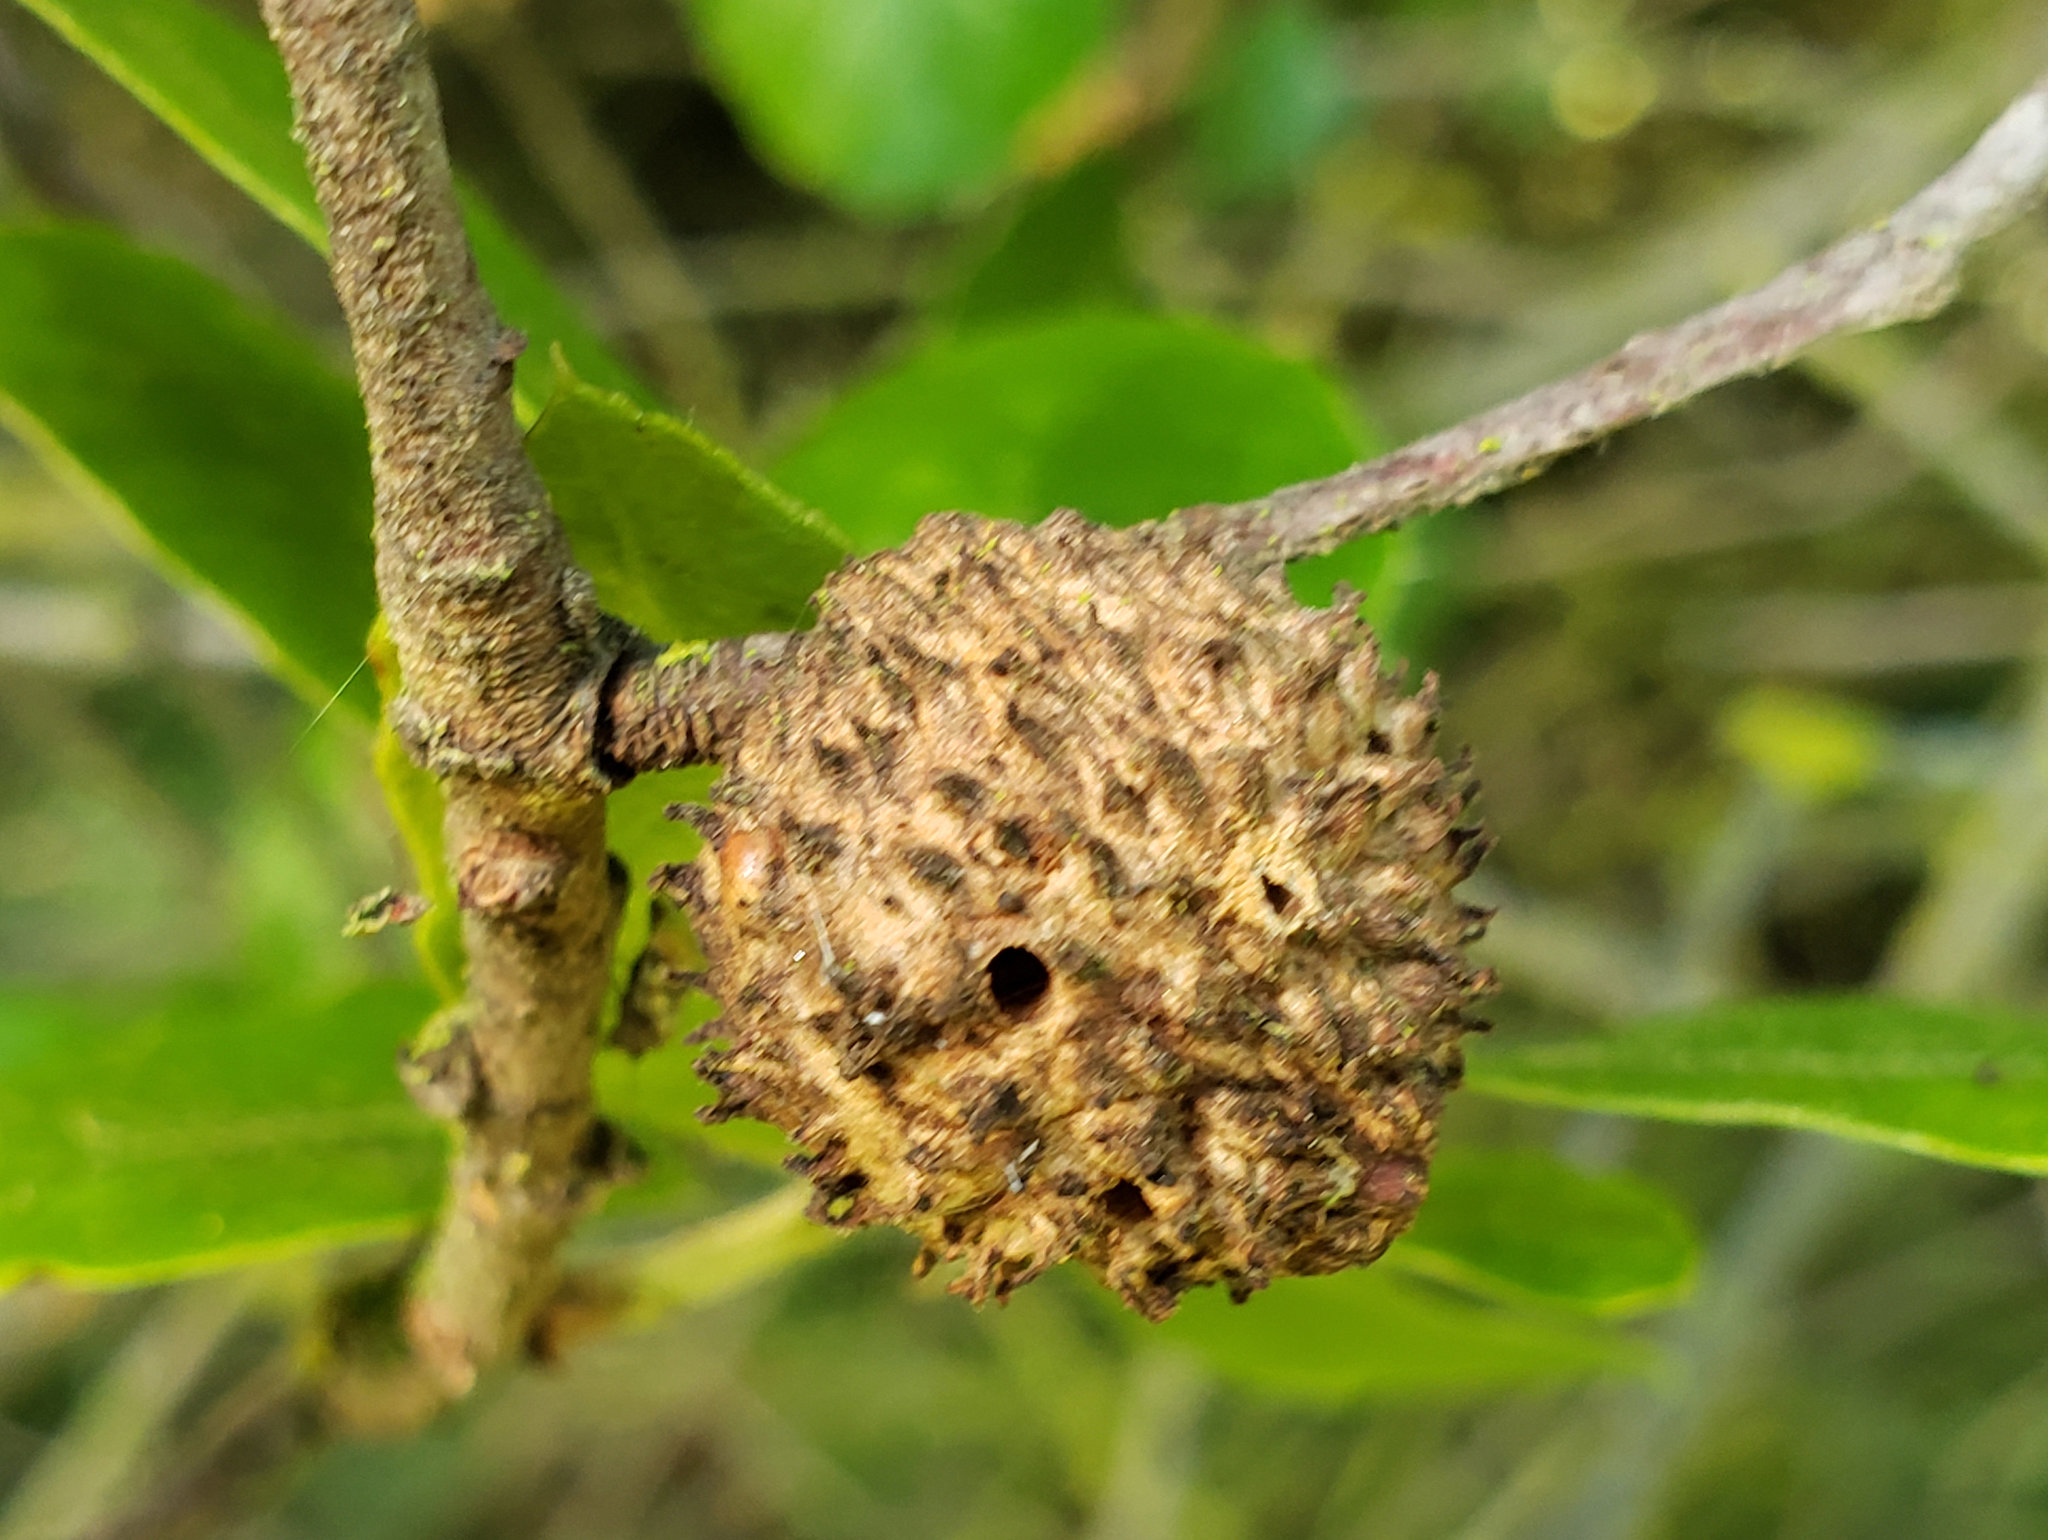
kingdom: Animalia
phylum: Arthropoda
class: Insecta
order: Hymenoptera
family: Cynipidae
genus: Amphibolips
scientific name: Amphibolips quercuspomiformis
